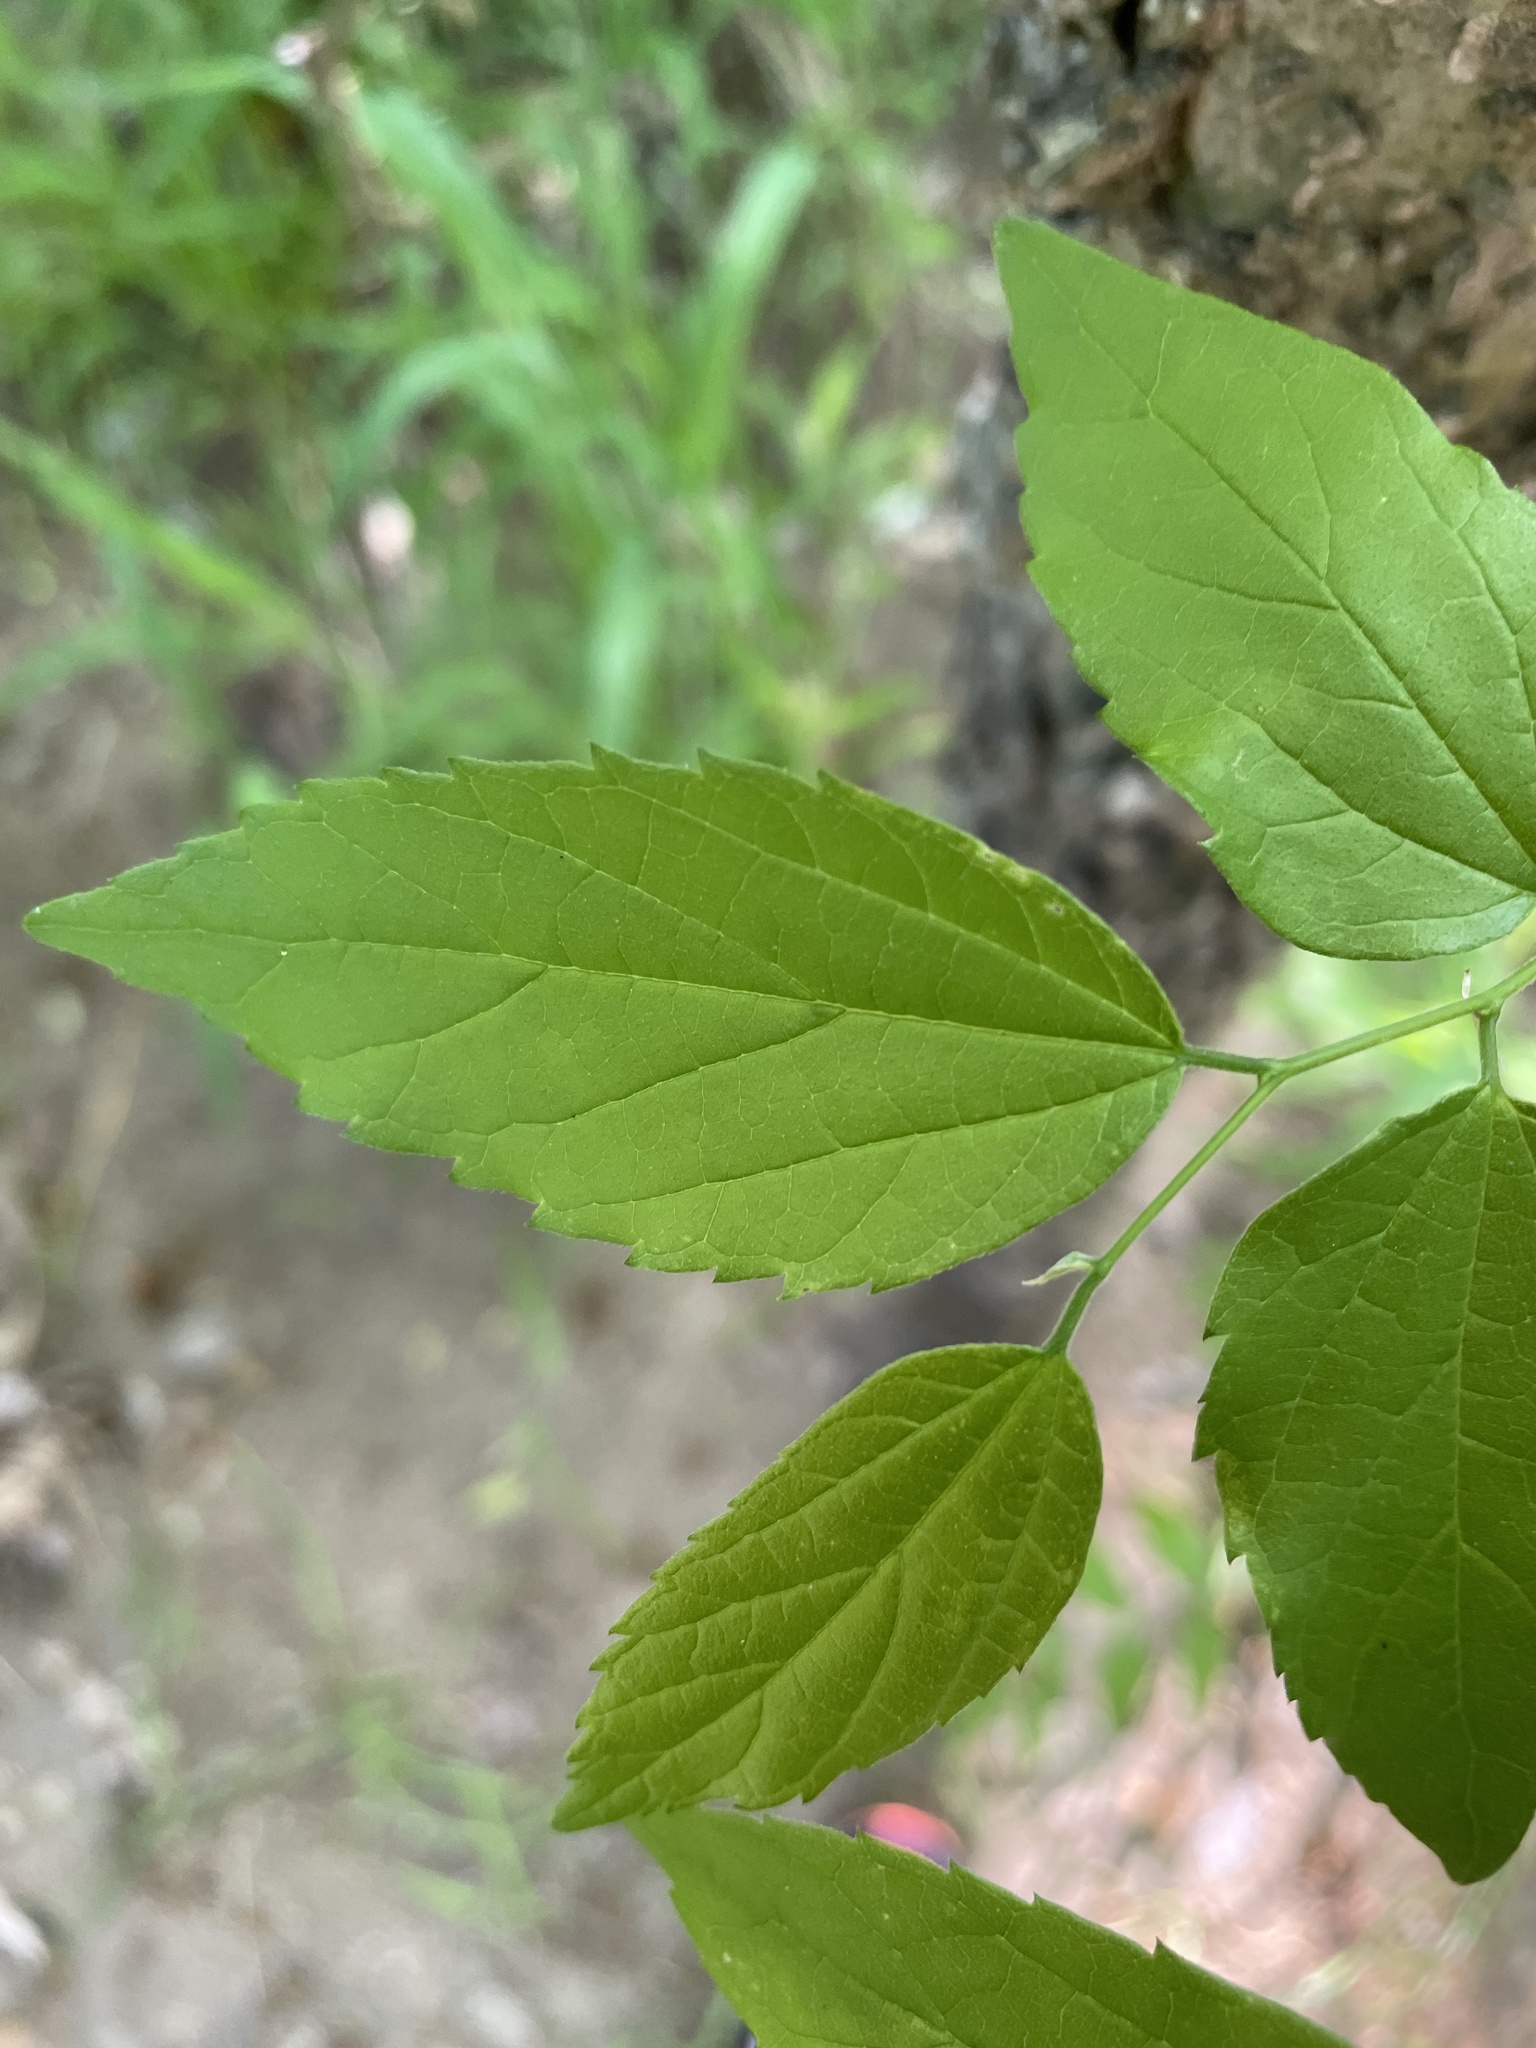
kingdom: Plantae
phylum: Tracheophyta
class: Magnoliopsida
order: Rosales
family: Cannabaceae
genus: Celtis
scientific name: Celtis laevigata
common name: Sugarberry
